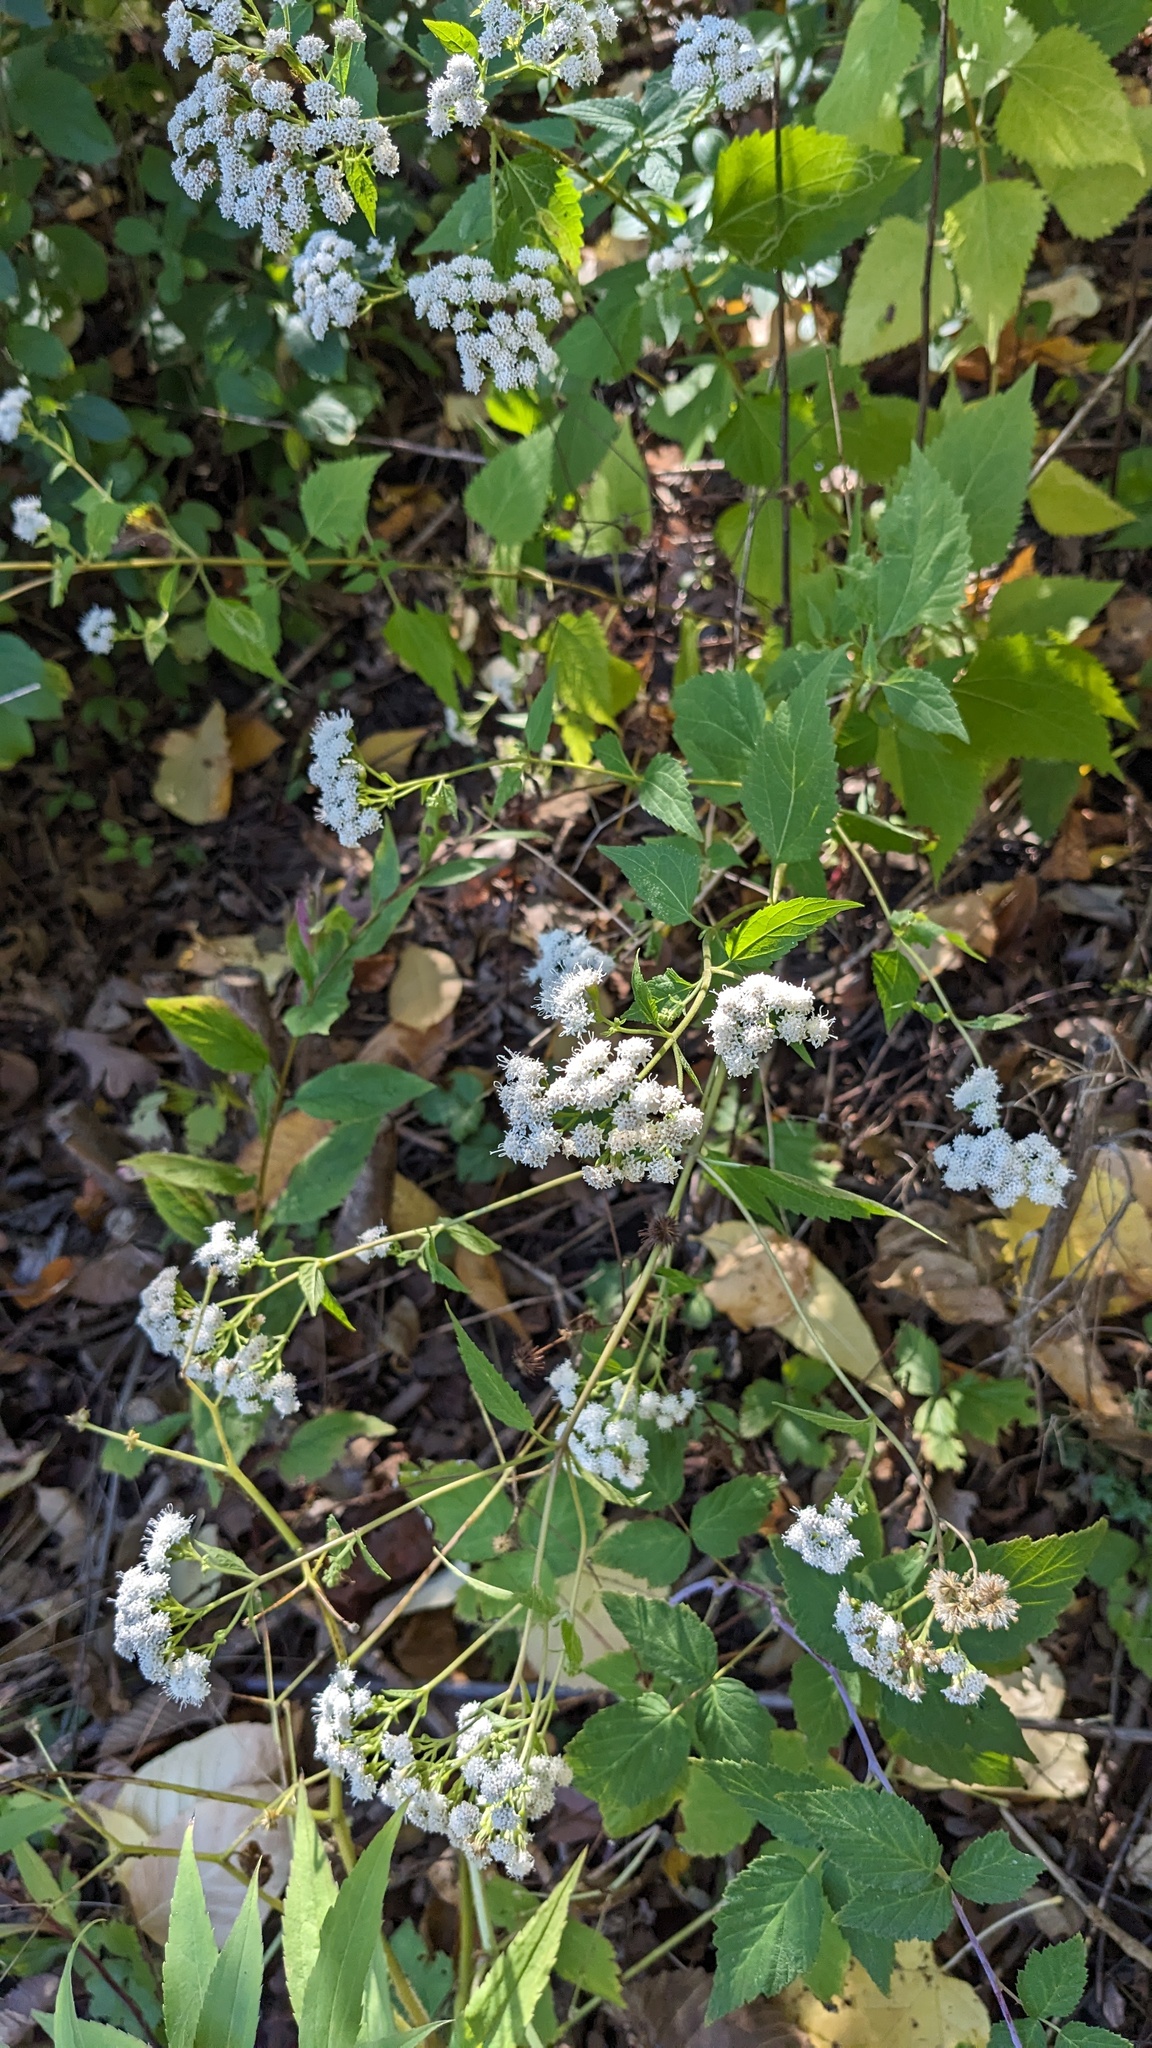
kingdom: Plantae
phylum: Tracheophyta
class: Magnoliopsida
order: Asterales
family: Asteraceae
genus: Ageratina
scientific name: Ageratina altissima
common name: White snakeroot
